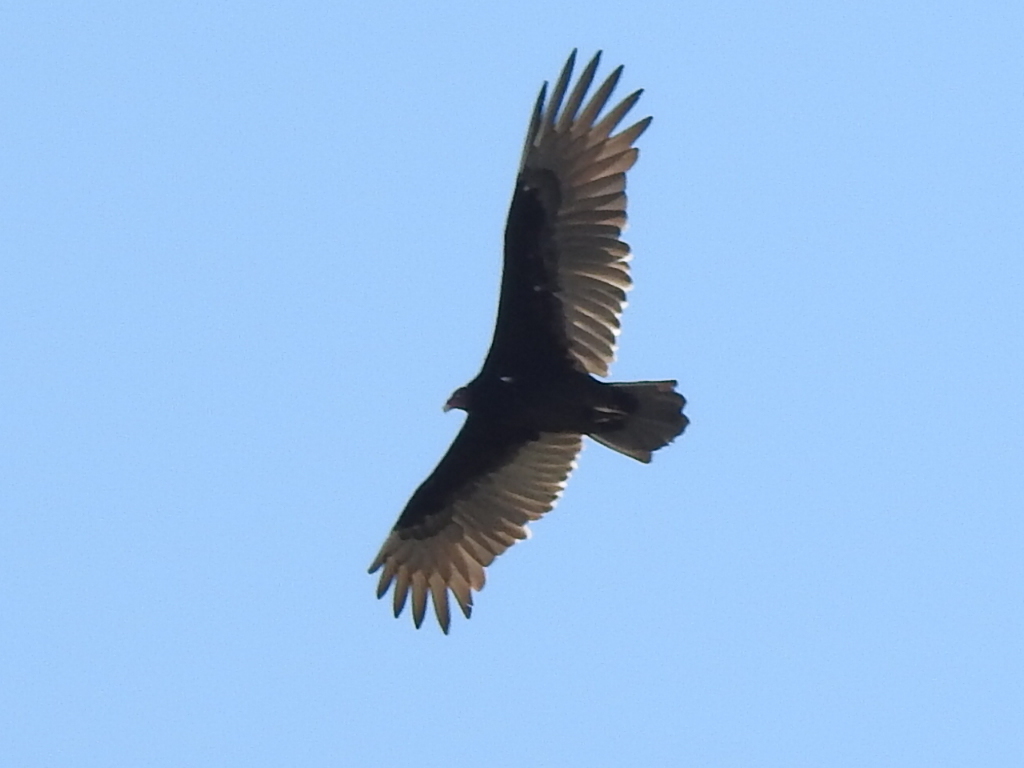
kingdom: Animalia
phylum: Chordata
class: Aves
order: Accipitriformes
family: Cathartidae
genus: Cathartes
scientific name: Cathartes aura
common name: Turkey vulture
